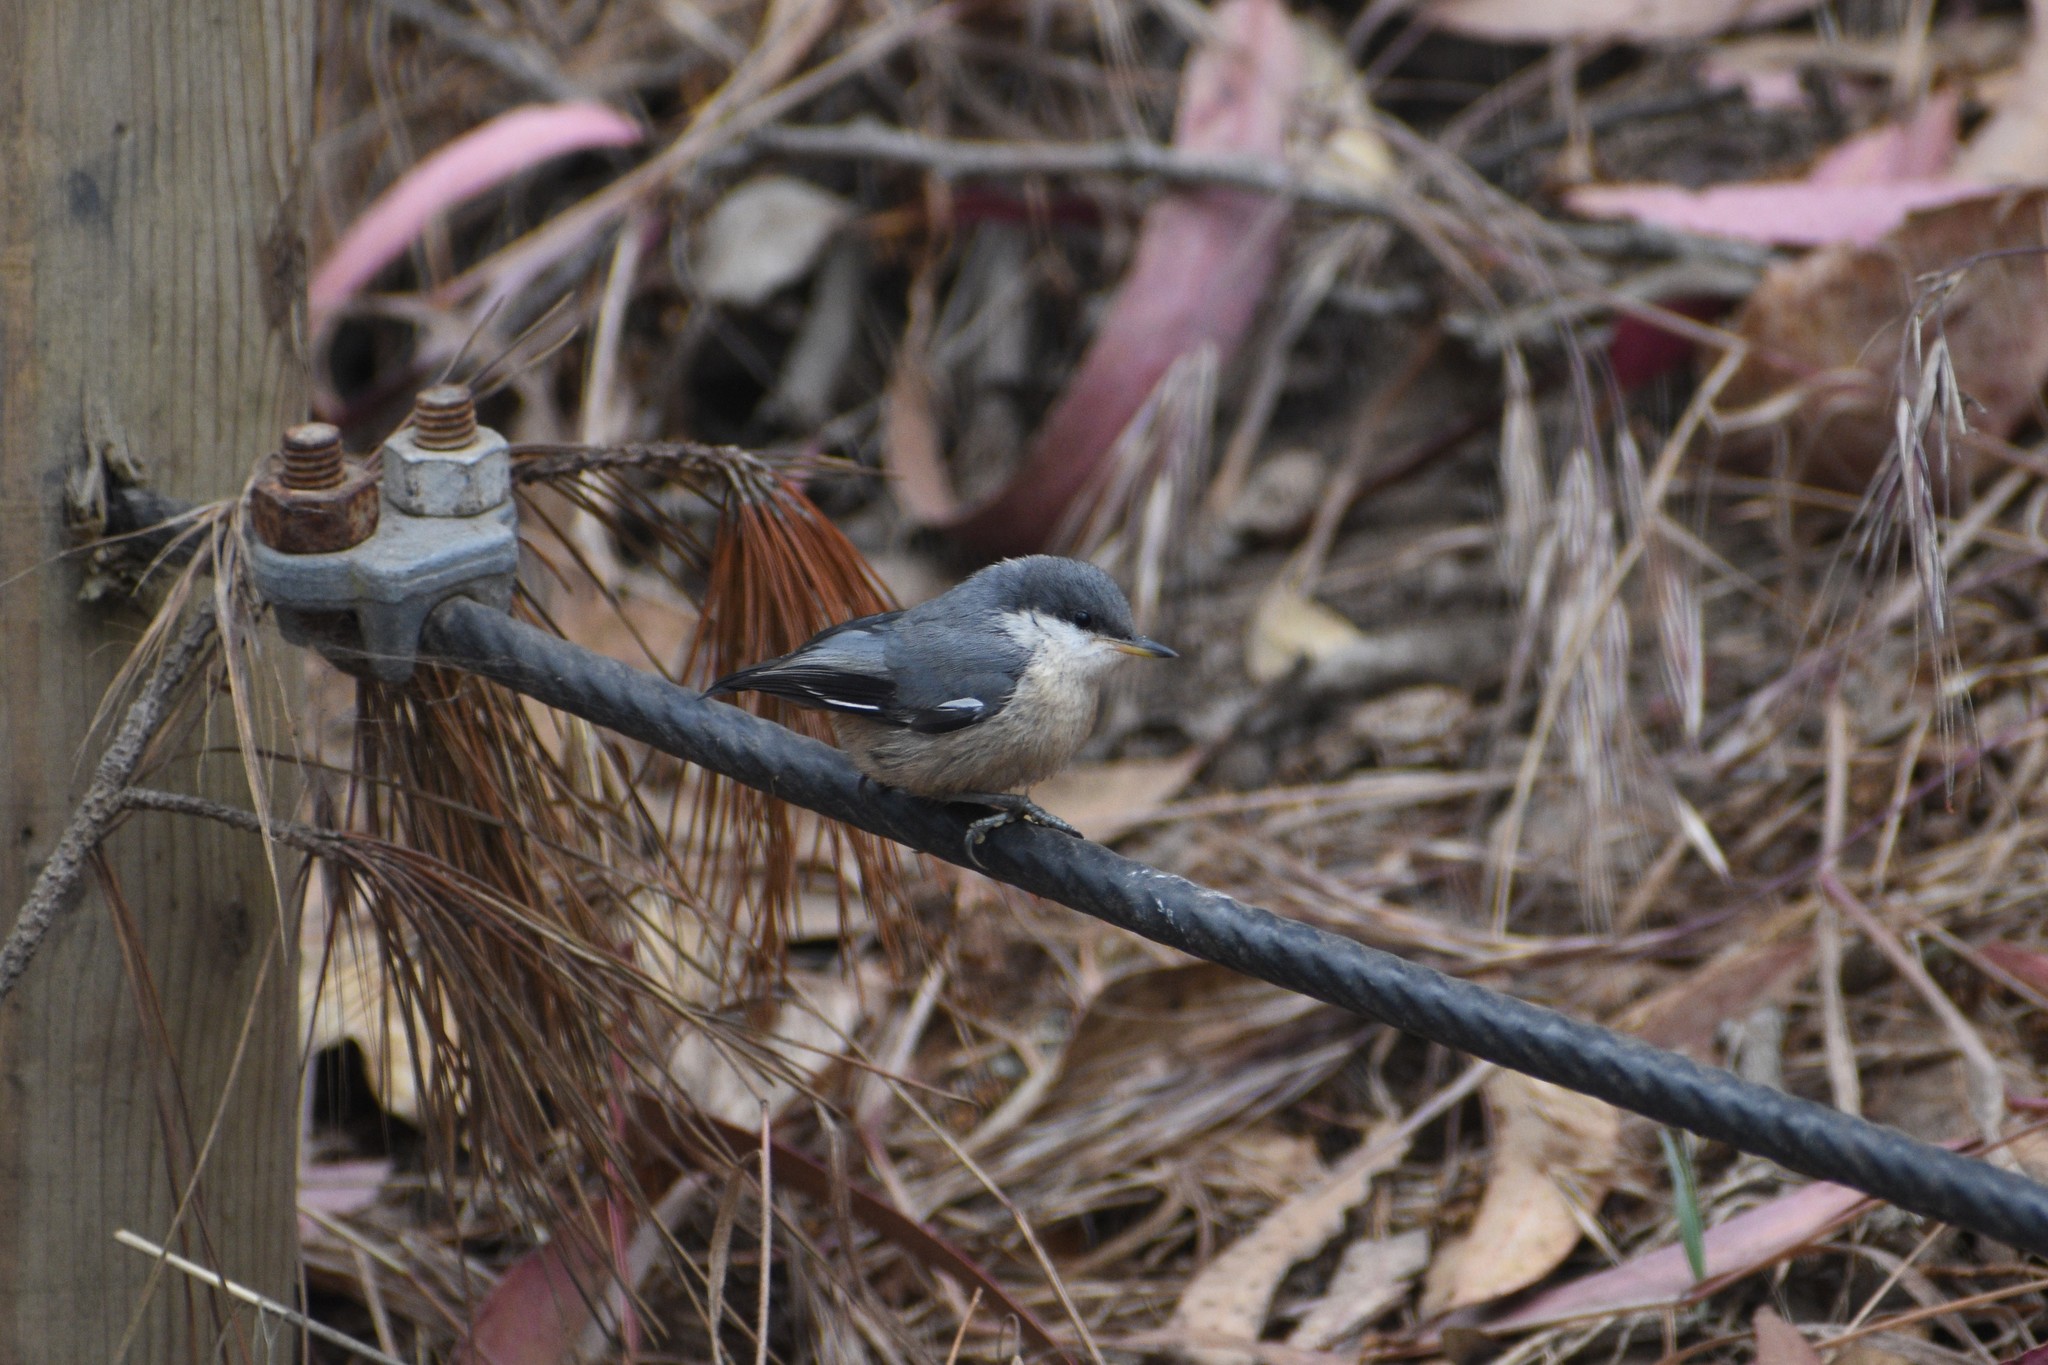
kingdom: Animalia
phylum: Chordata
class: Aves
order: Passeriformes
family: Sittidae
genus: Sitta
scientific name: Sitta pygmaea
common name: Pygmy nuthatch
